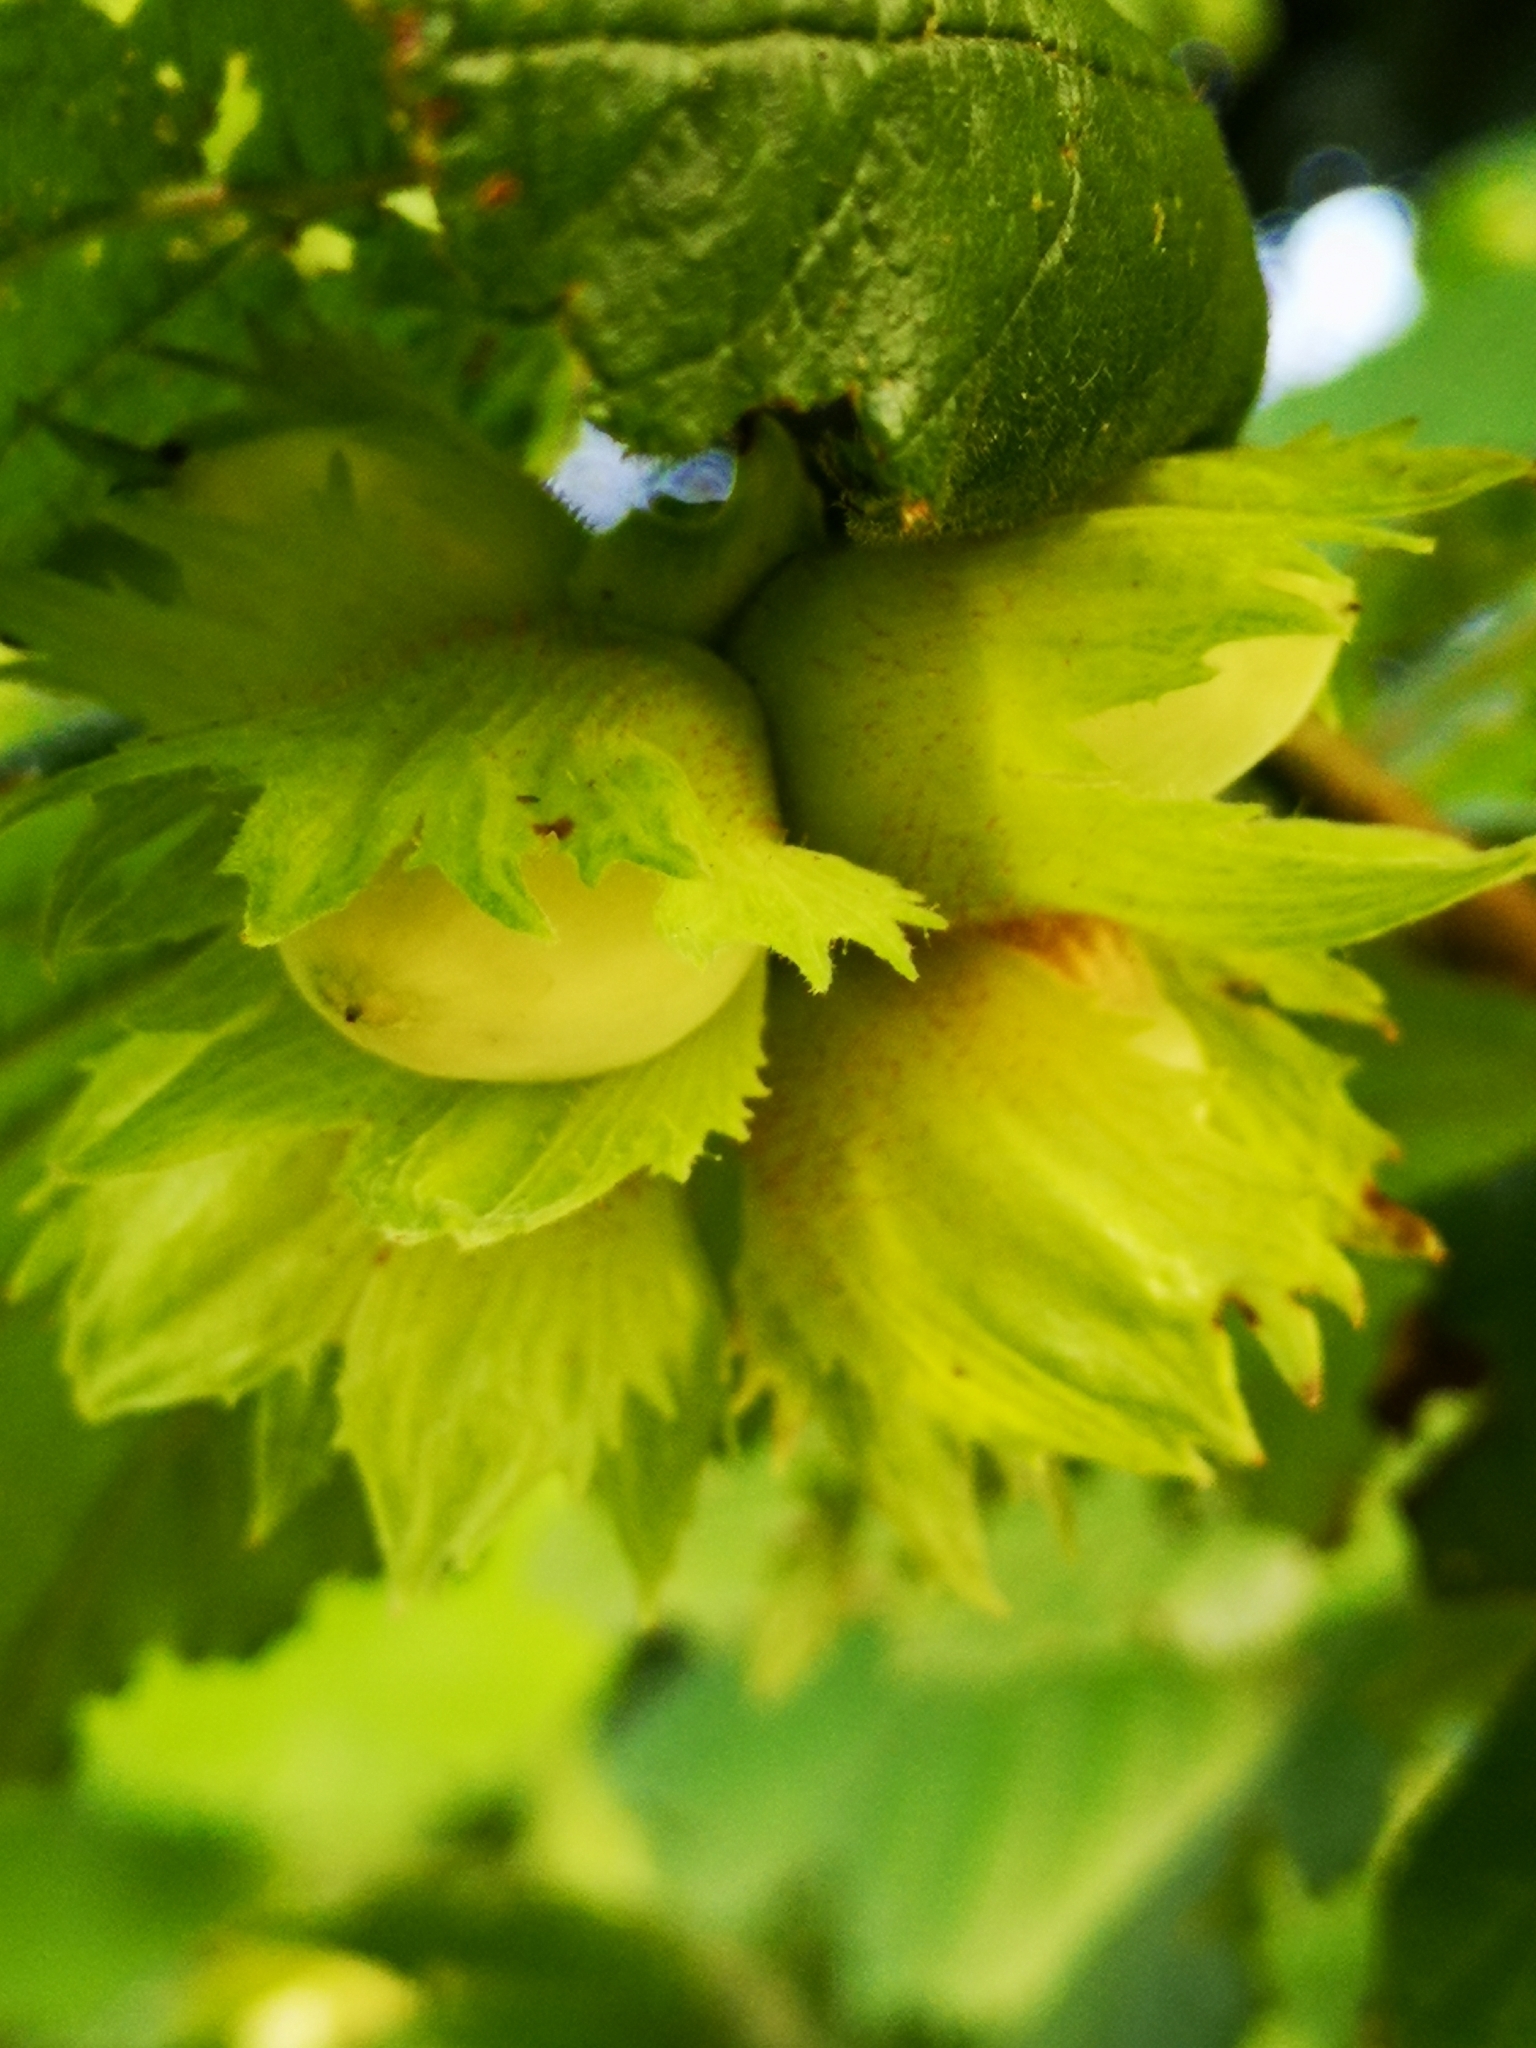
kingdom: Plantae
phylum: Tracheophyta
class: Magnoliopsida
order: Fagales
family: Betulaceae
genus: Corylus
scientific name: Corylus avellana
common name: European hazel
